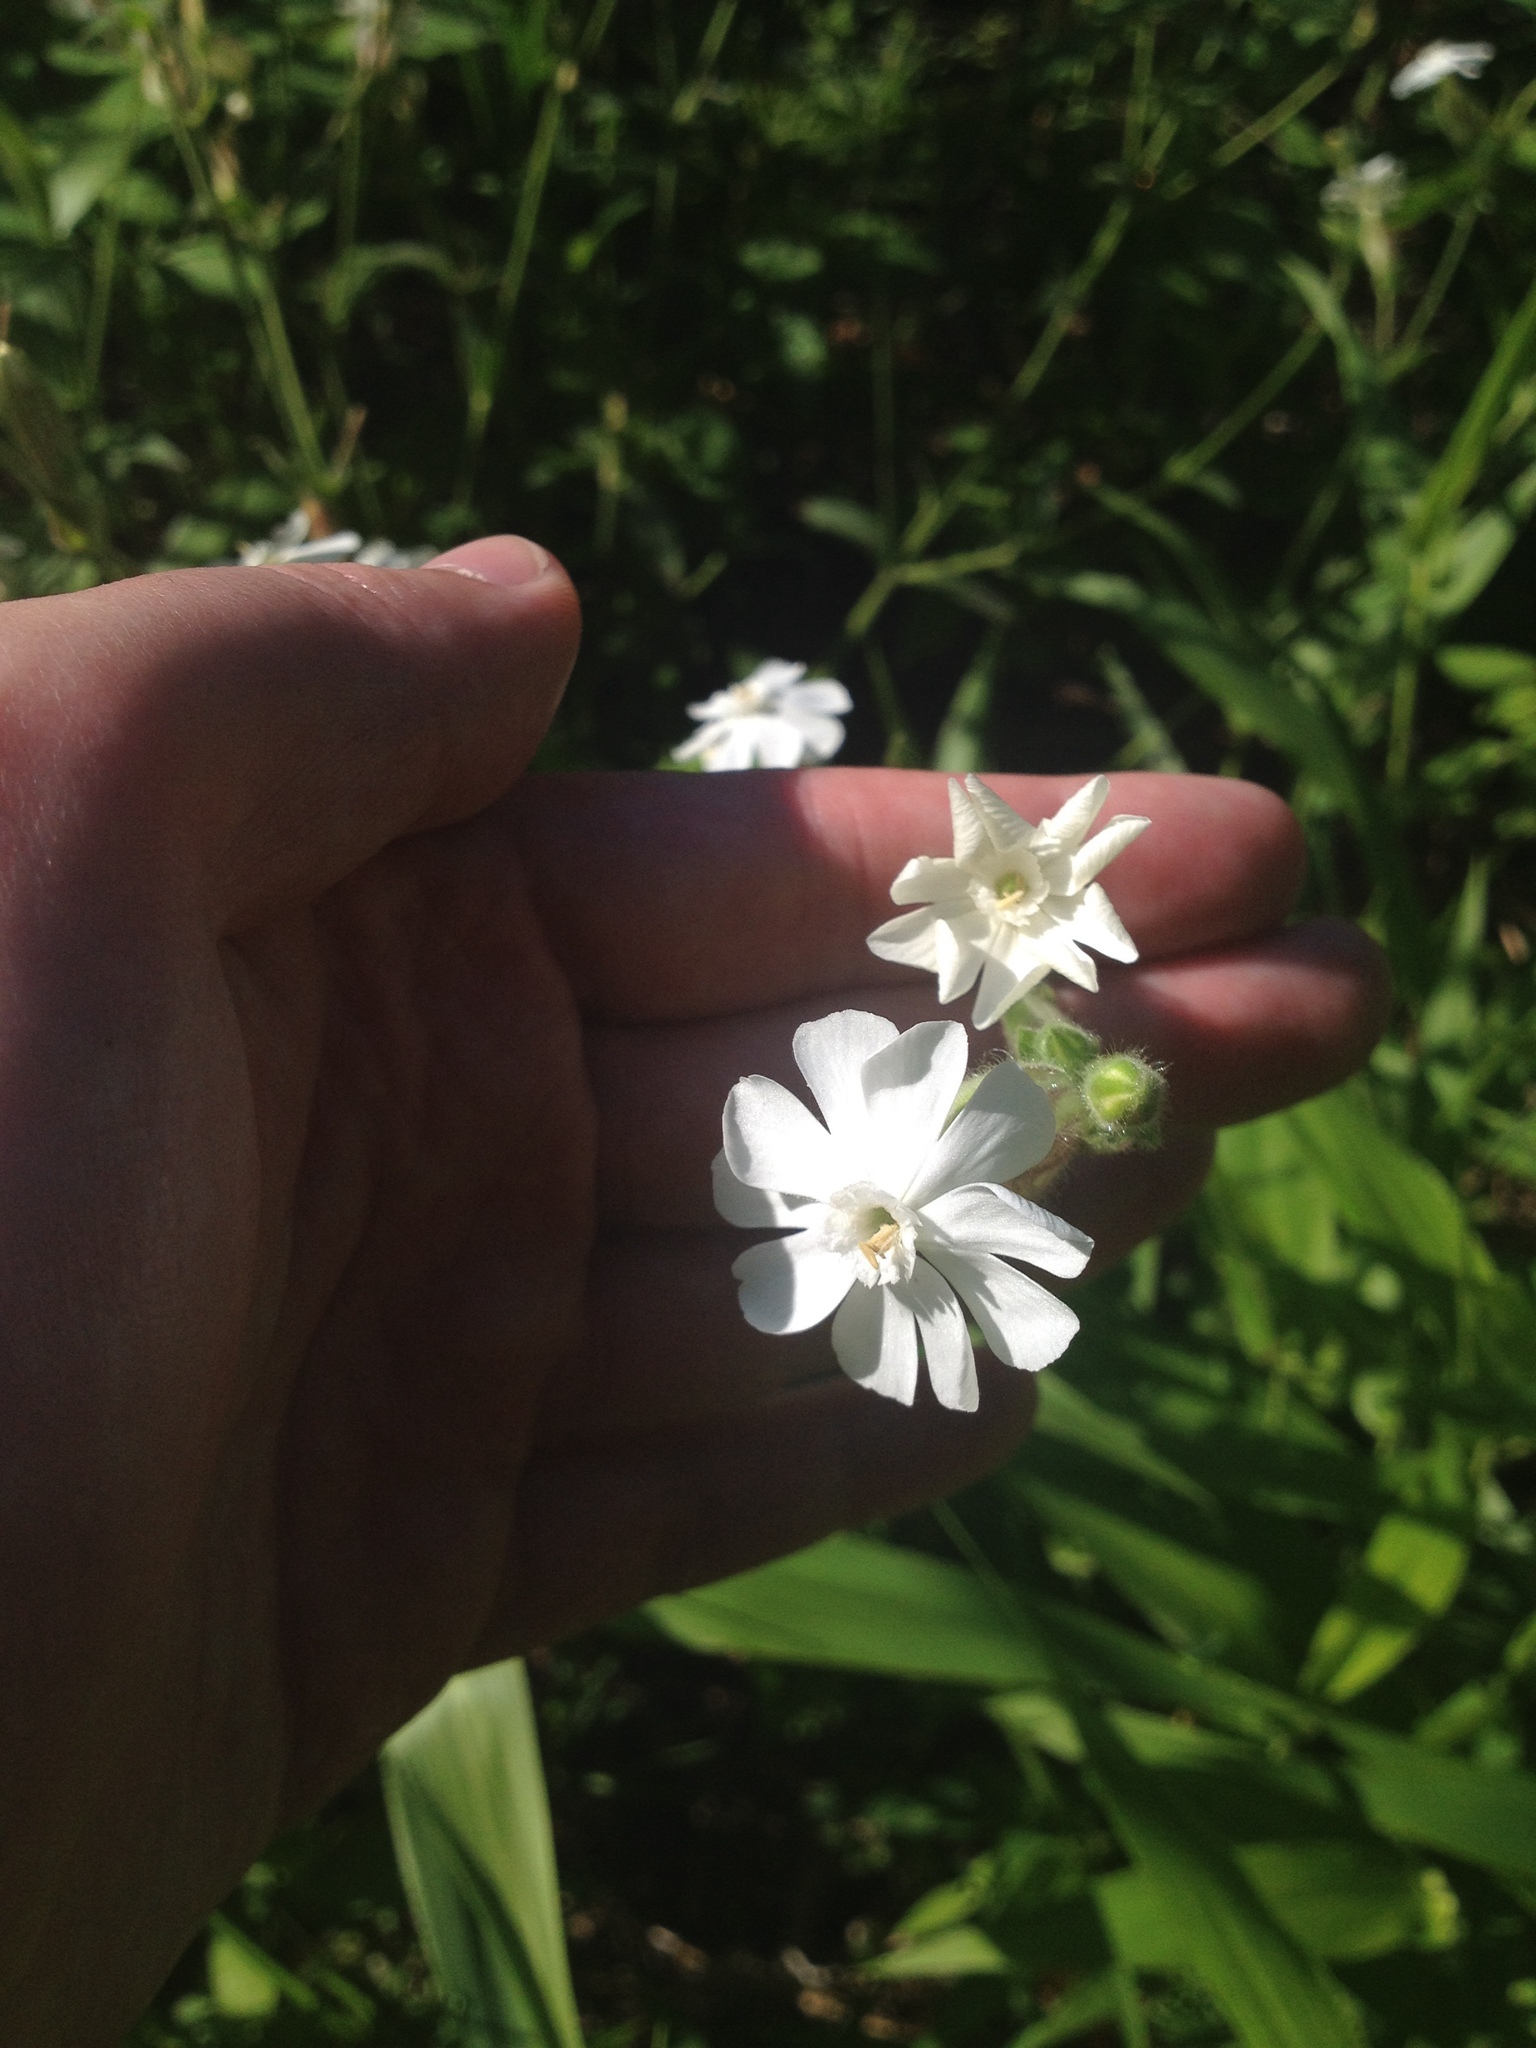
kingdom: Plantae
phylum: Tracheophyta
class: Magnoliopsida
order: Caryophyllales
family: Caryophyllaceae
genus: Silene
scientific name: Silene latifolia
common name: White campion
